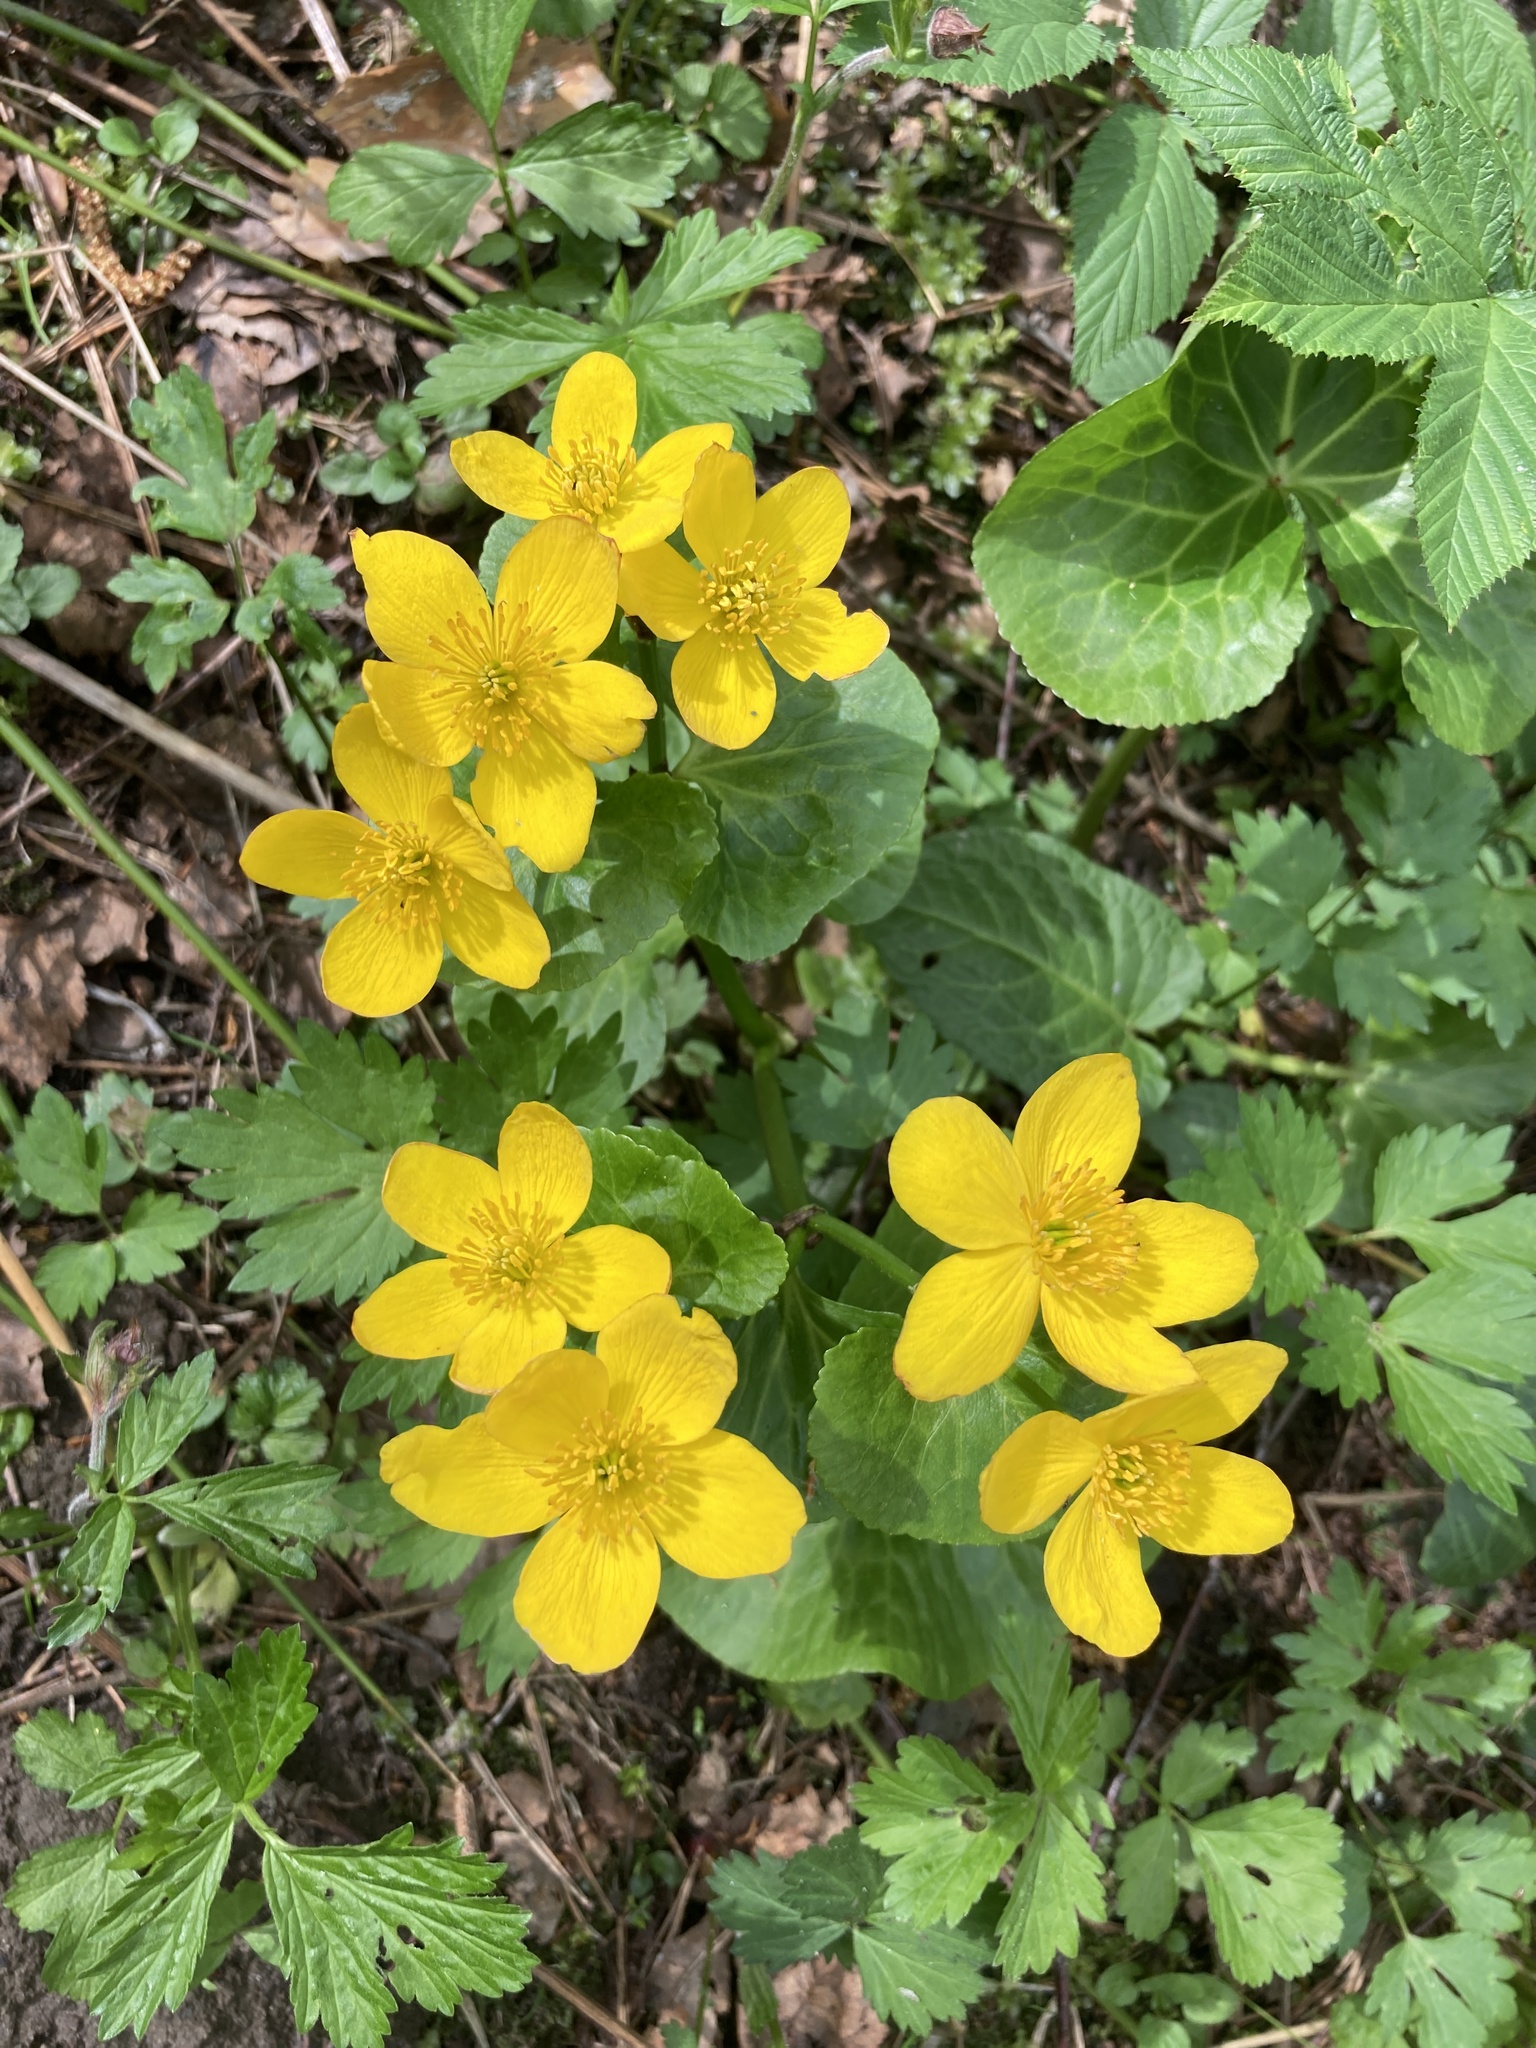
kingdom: Plantae
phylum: Tracheophyta
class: Magnoliopsida
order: Ranunculales
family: Ranunculaceae
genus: Caltha
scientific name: Caltha palustris
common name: Marsh marigold
